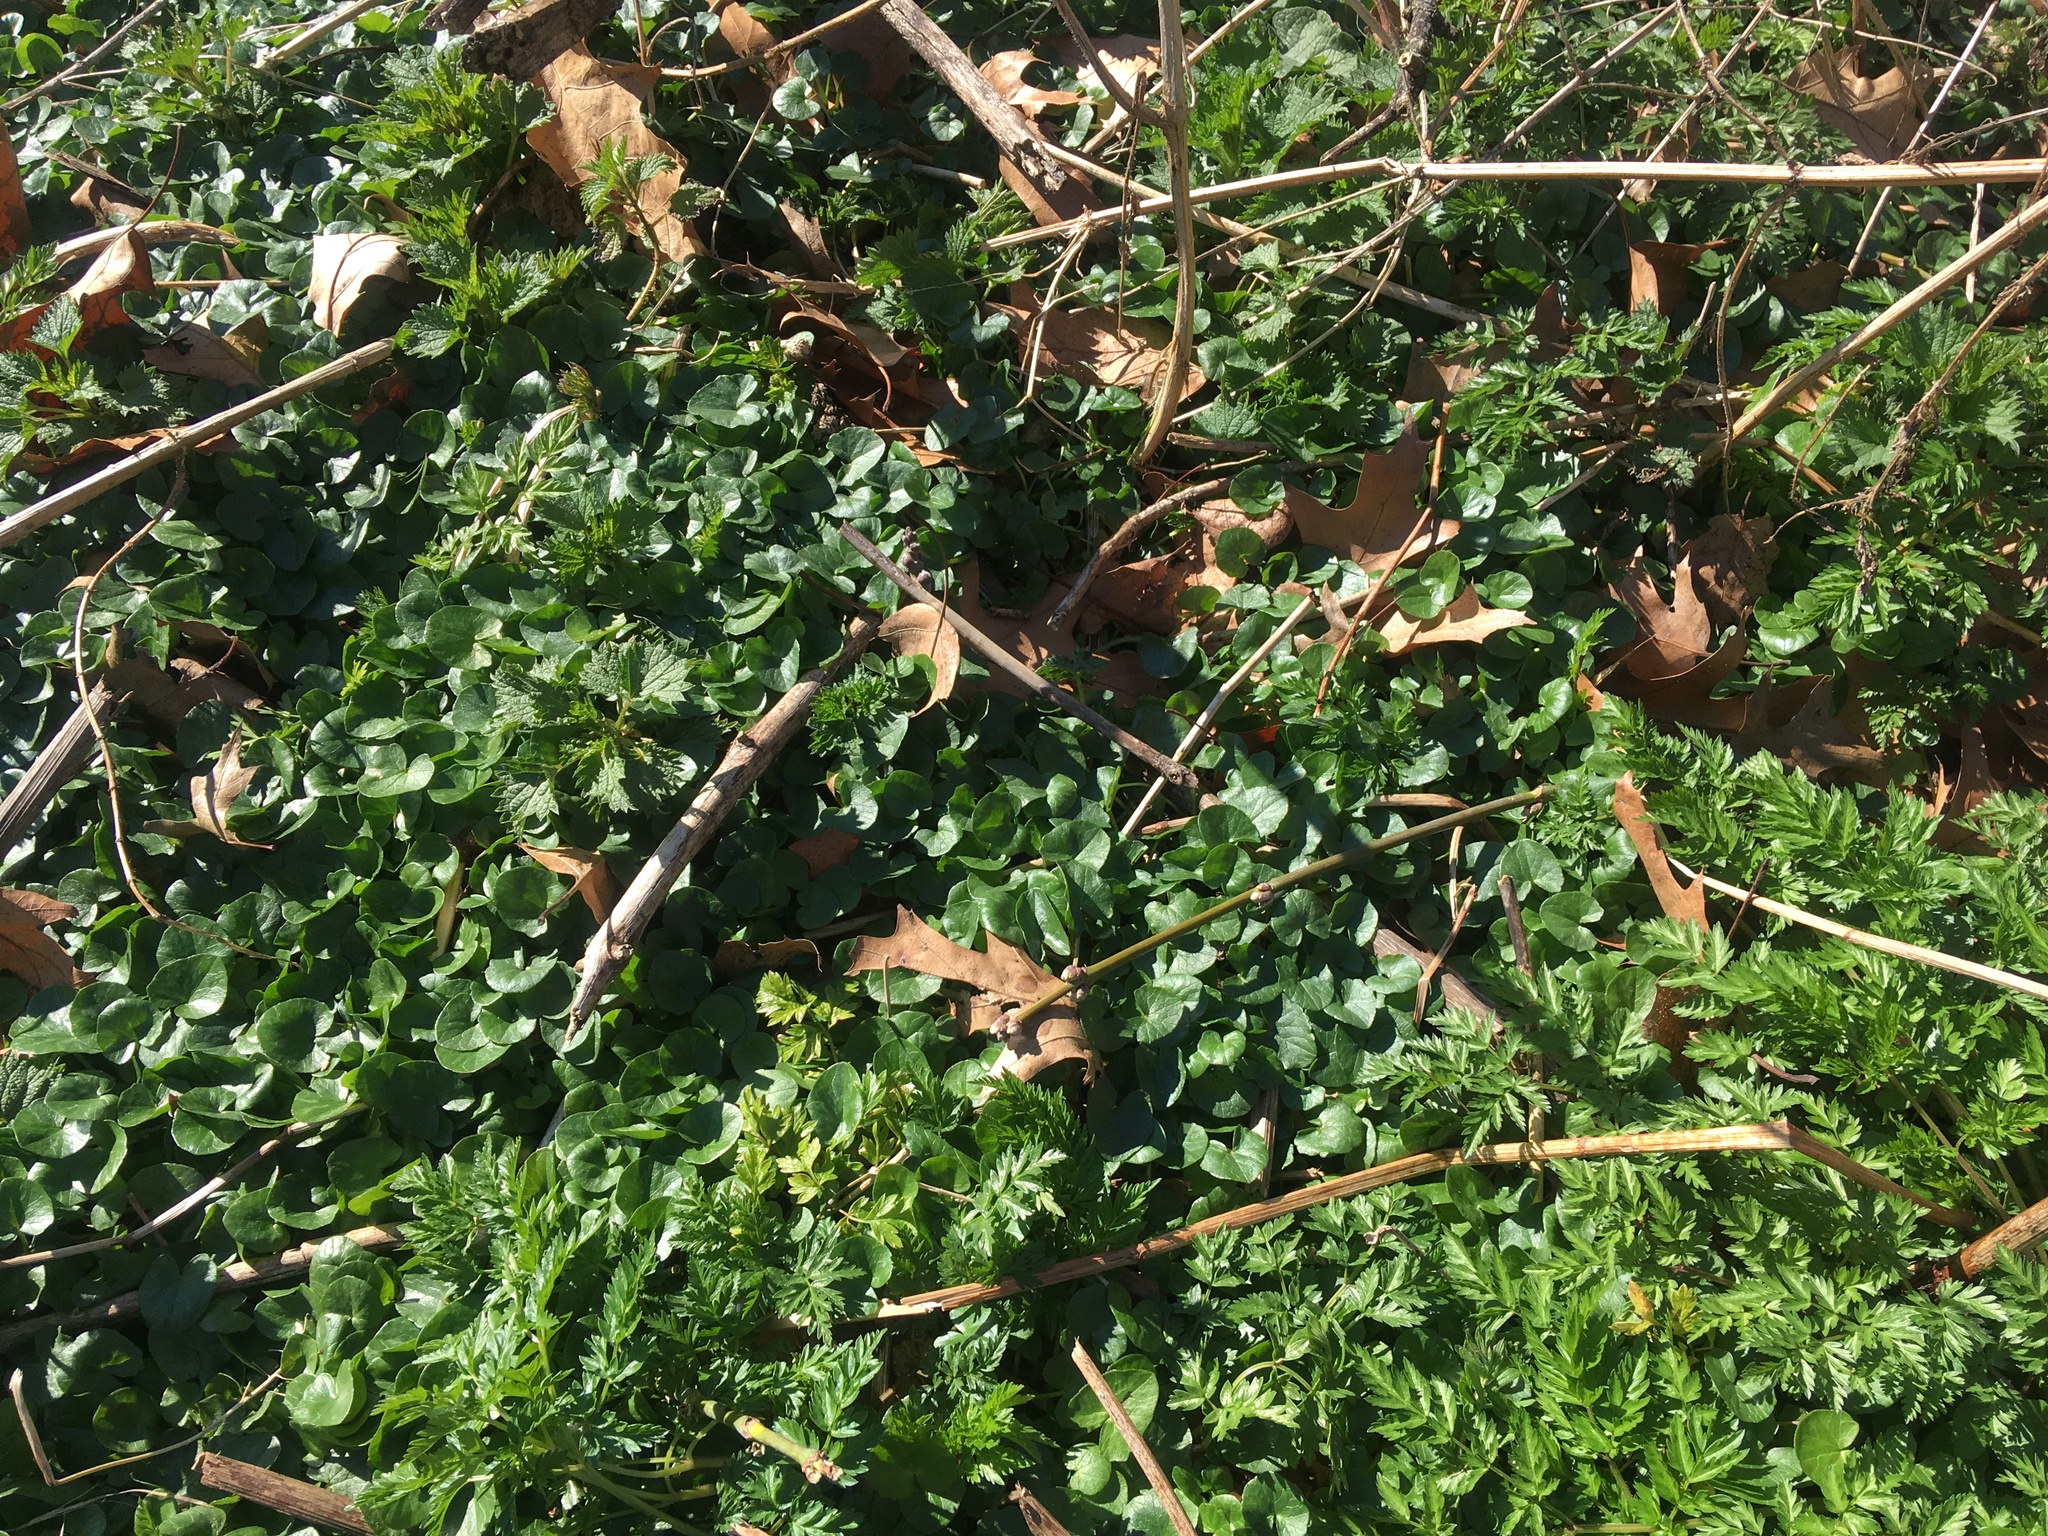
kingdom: Plantae
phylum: Tracheophyta
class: Magnoliopsida
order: Ranunculales
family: Ranunculaceae
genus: Ficaria
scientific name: Ficaria verna
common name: Lesser celandine
